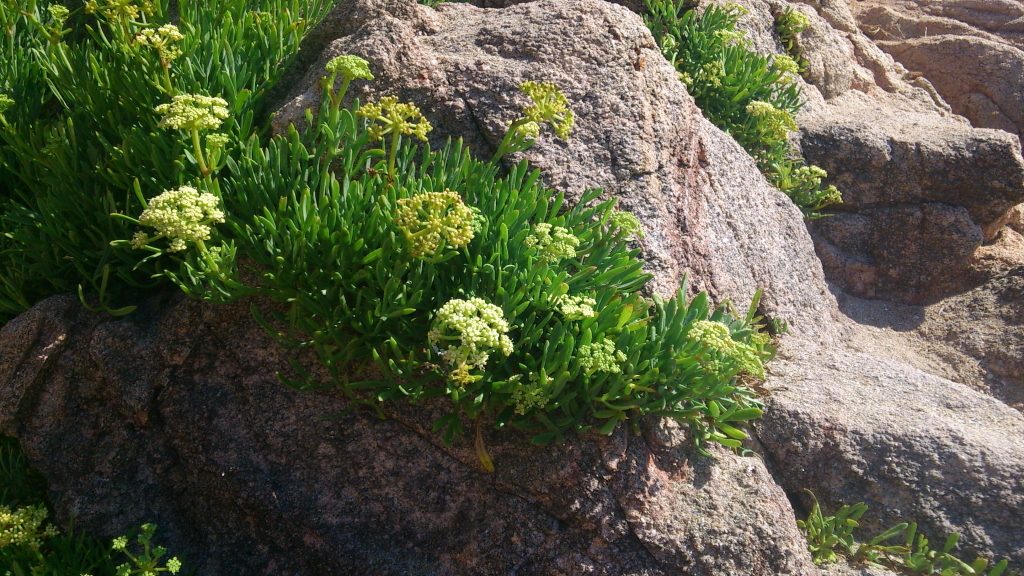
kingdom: Plantae
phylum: Tracheophyta
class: Magnoliopsida
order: Apiales
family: Apiaceae
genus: Crithmum
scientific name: Crithmum maritimum
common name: Rock samphire
